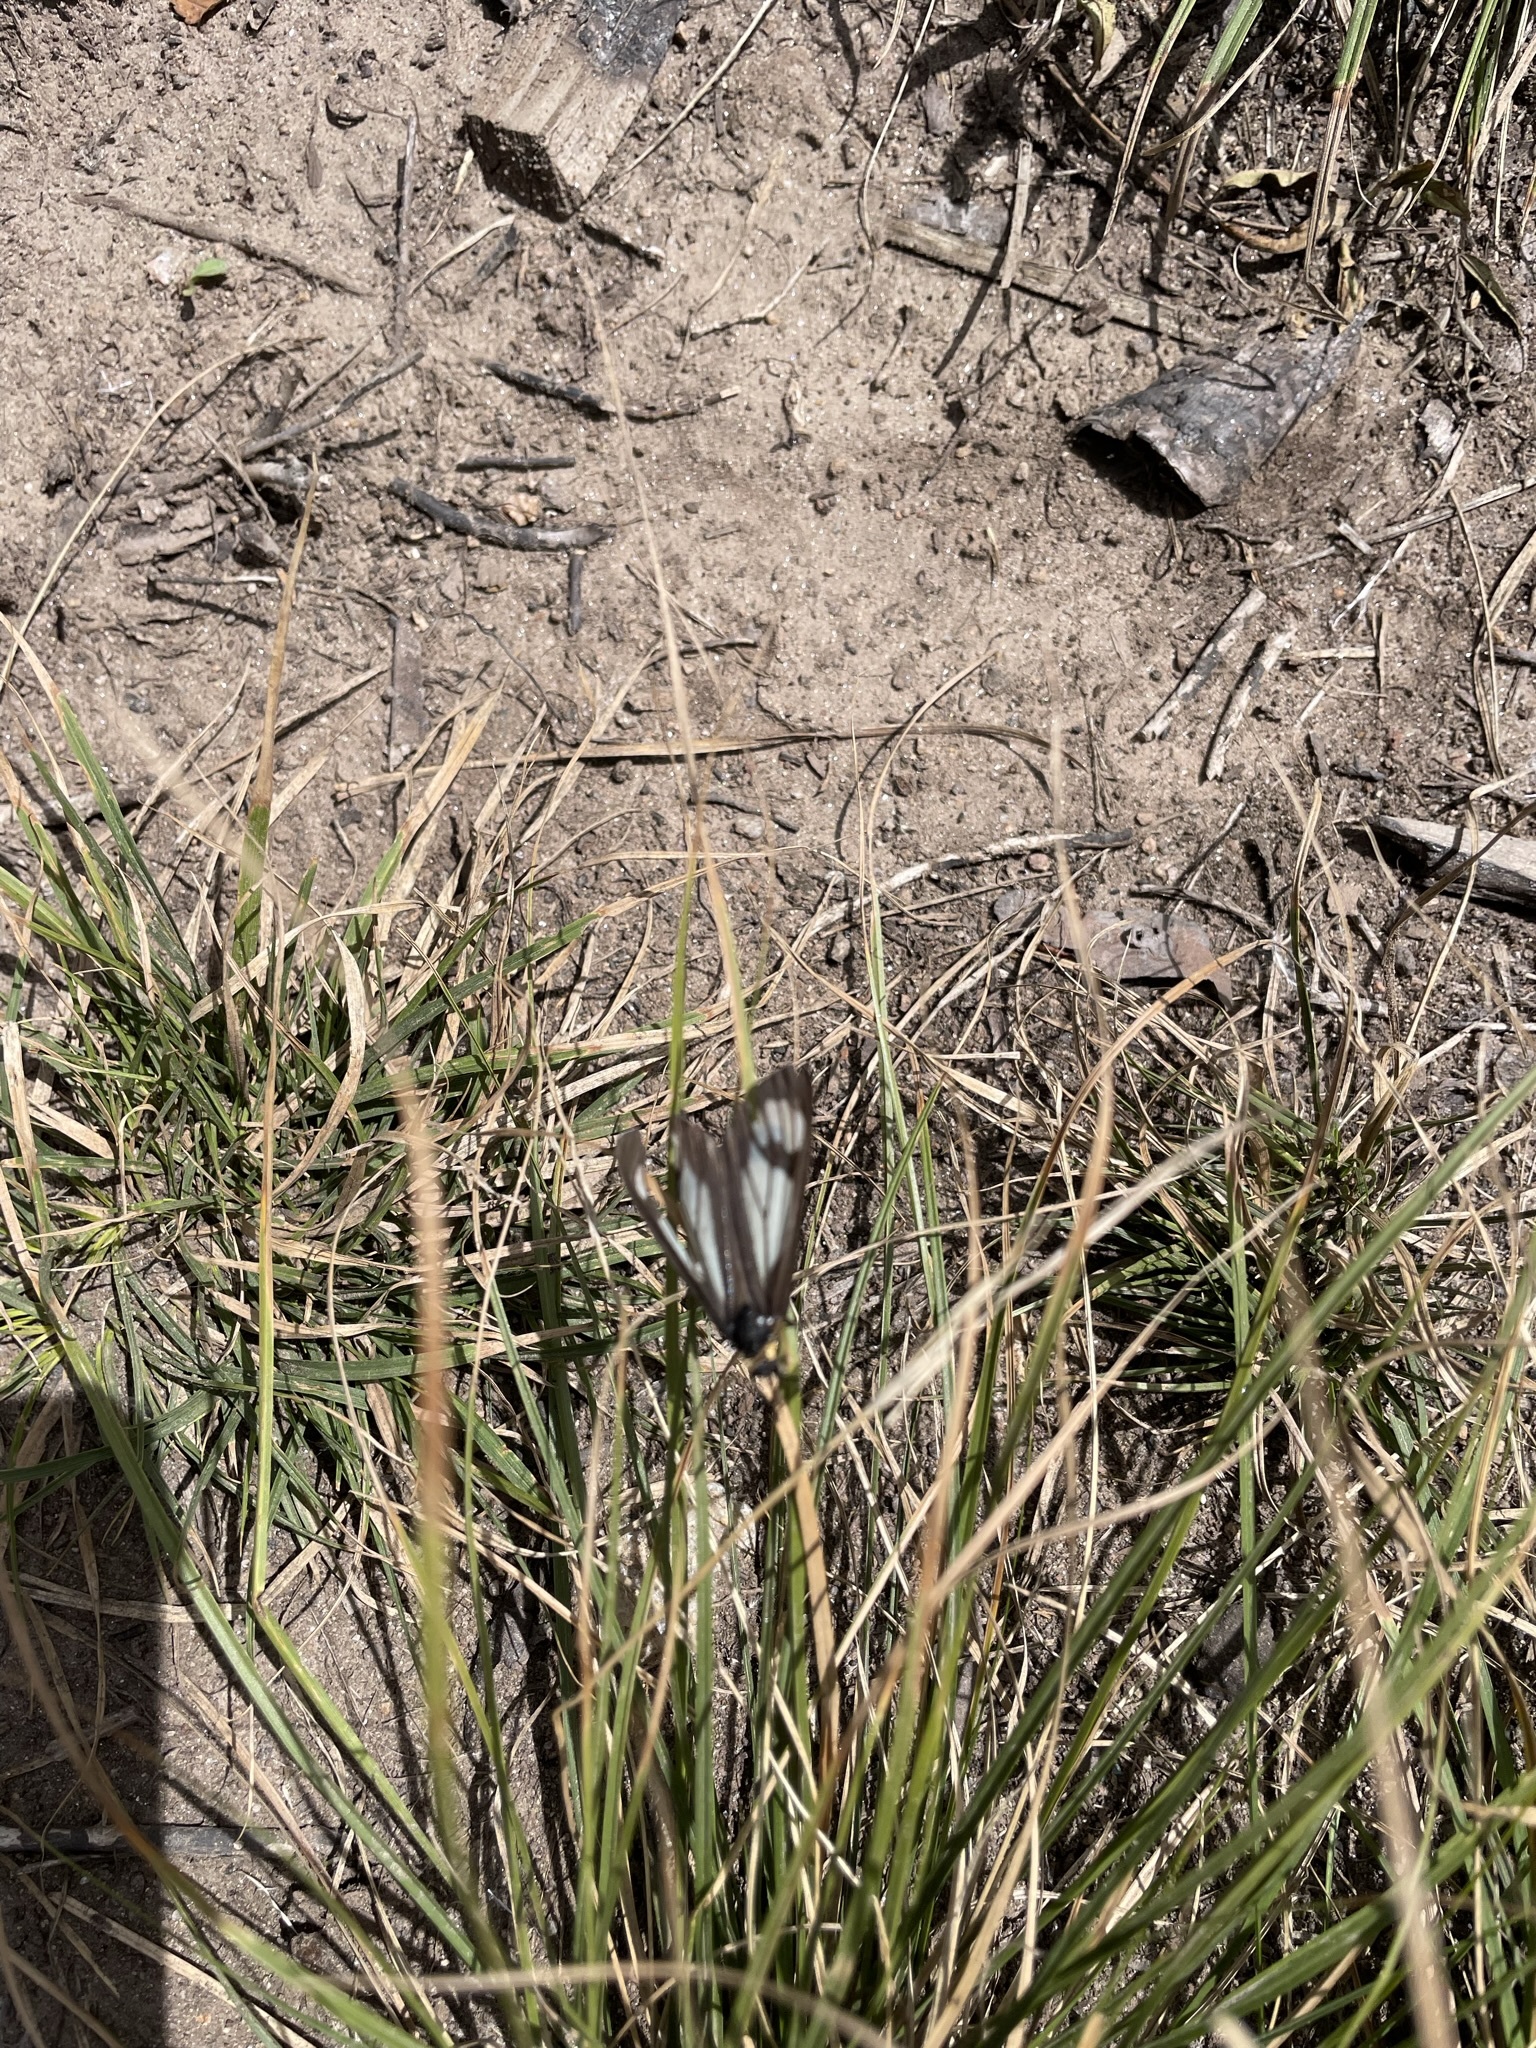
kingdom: Animalia
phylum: Arthropoda
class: Insecta
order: Lepidoptera
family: Erebidae
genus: Gnophaela
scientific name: Gnophaela vermiculata
